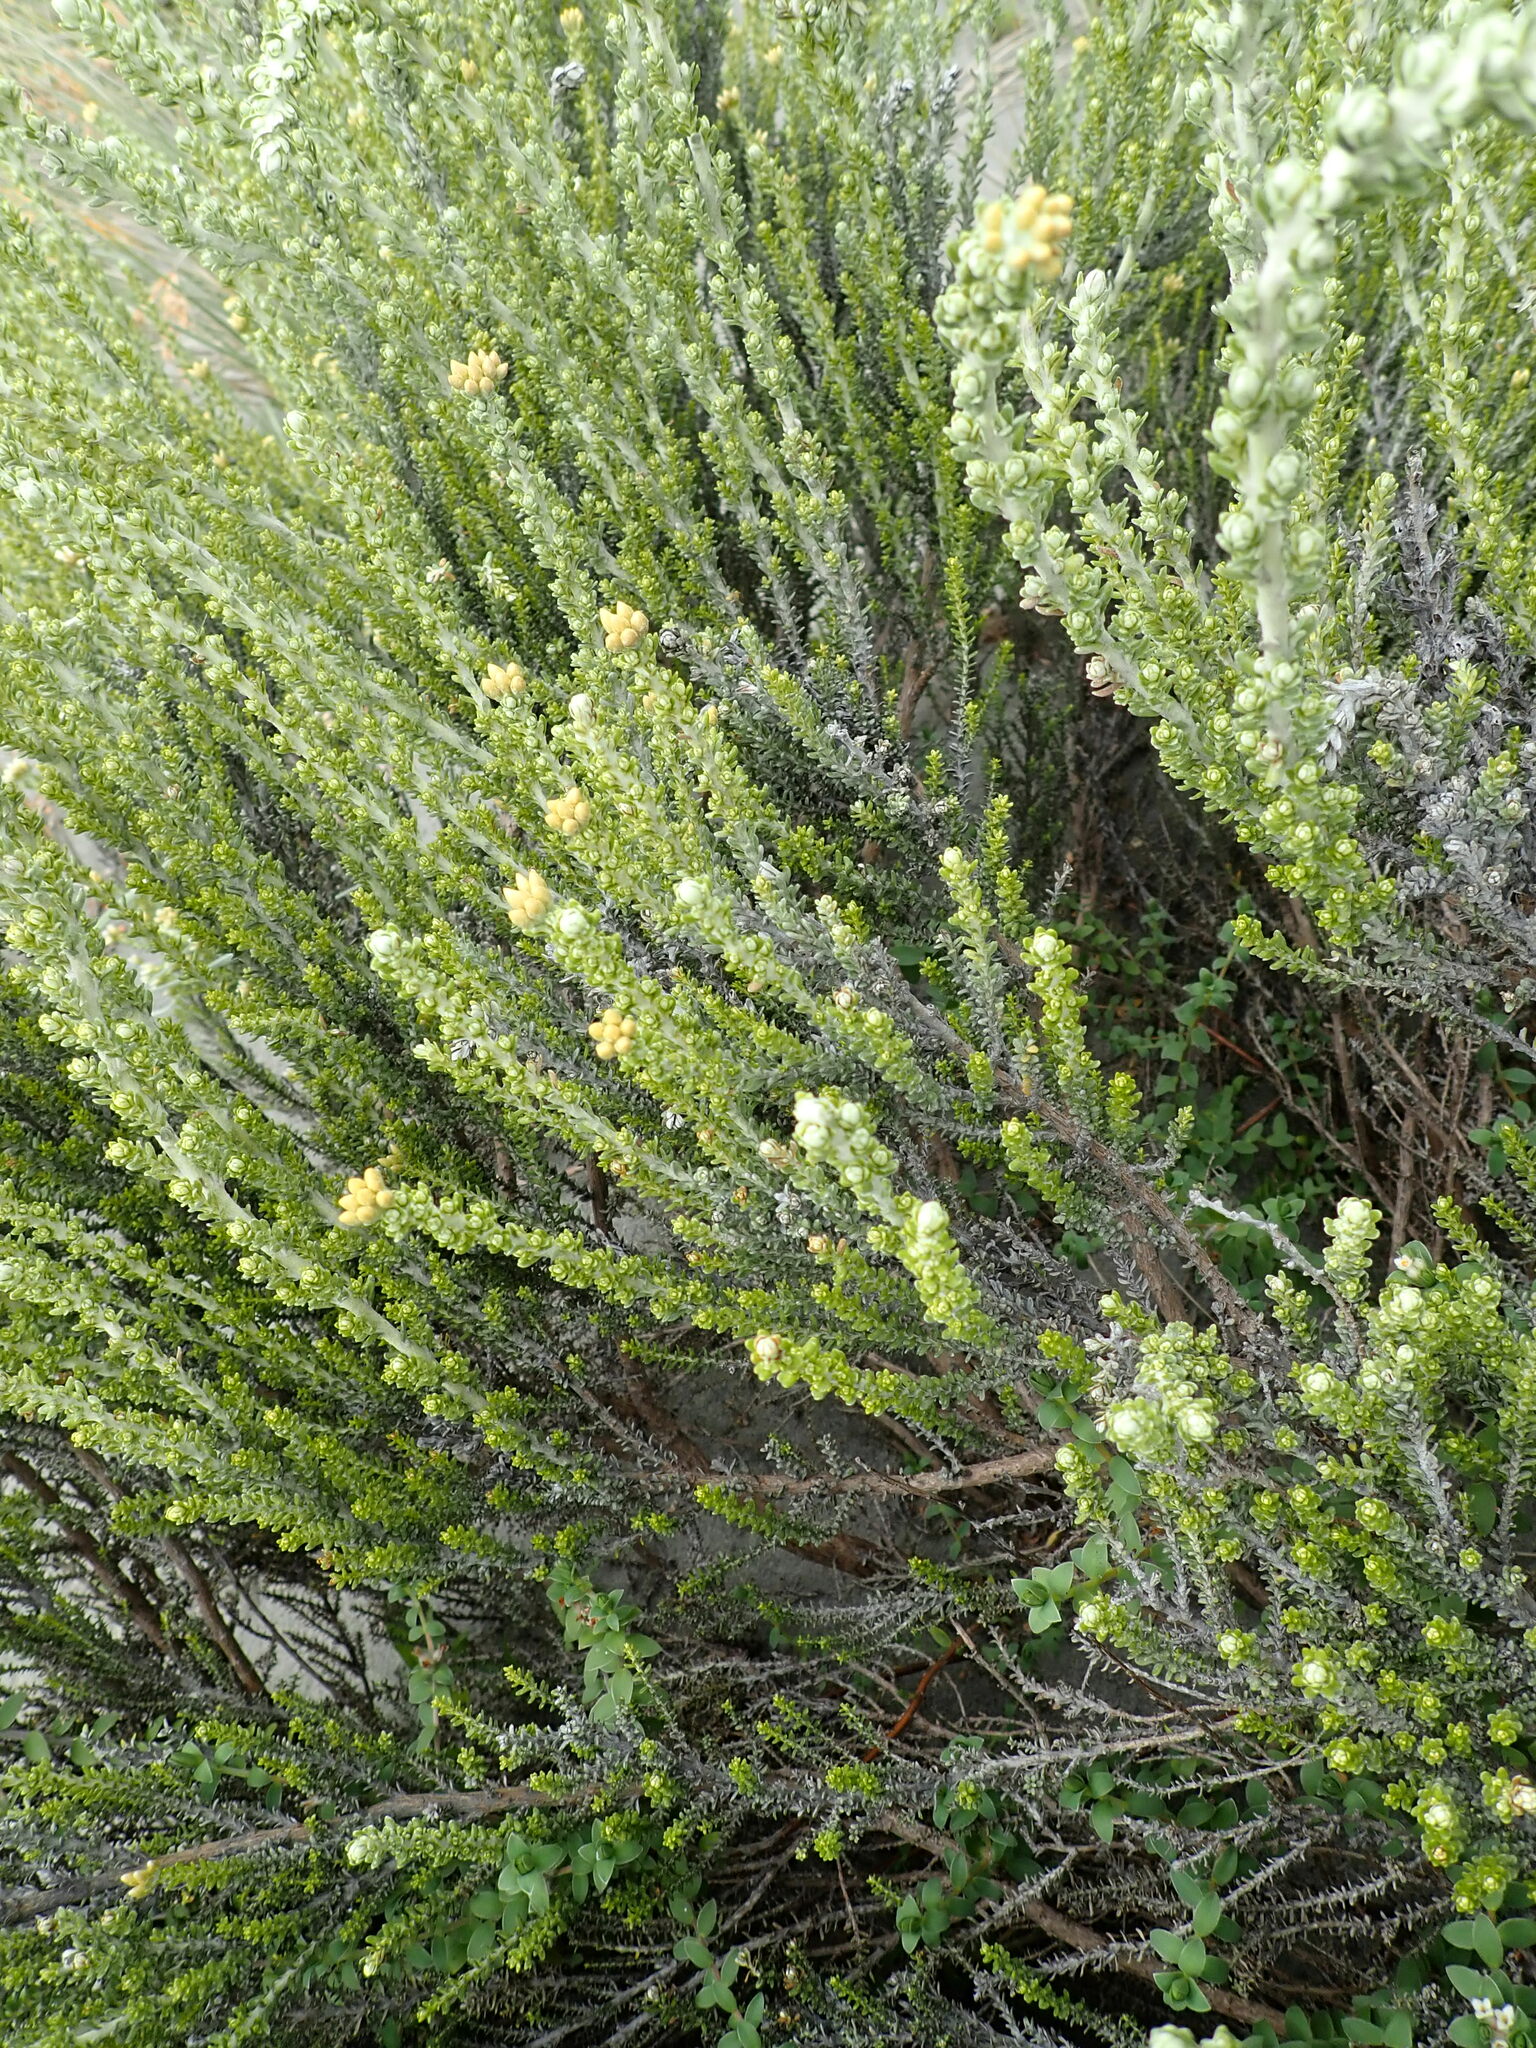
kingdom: Plantae
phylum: Tracheophyta
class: Magnoliopsida
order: Asterales
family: Asteraceae
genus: Ozothamnus
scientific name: Ozothamnus leptophyllus
